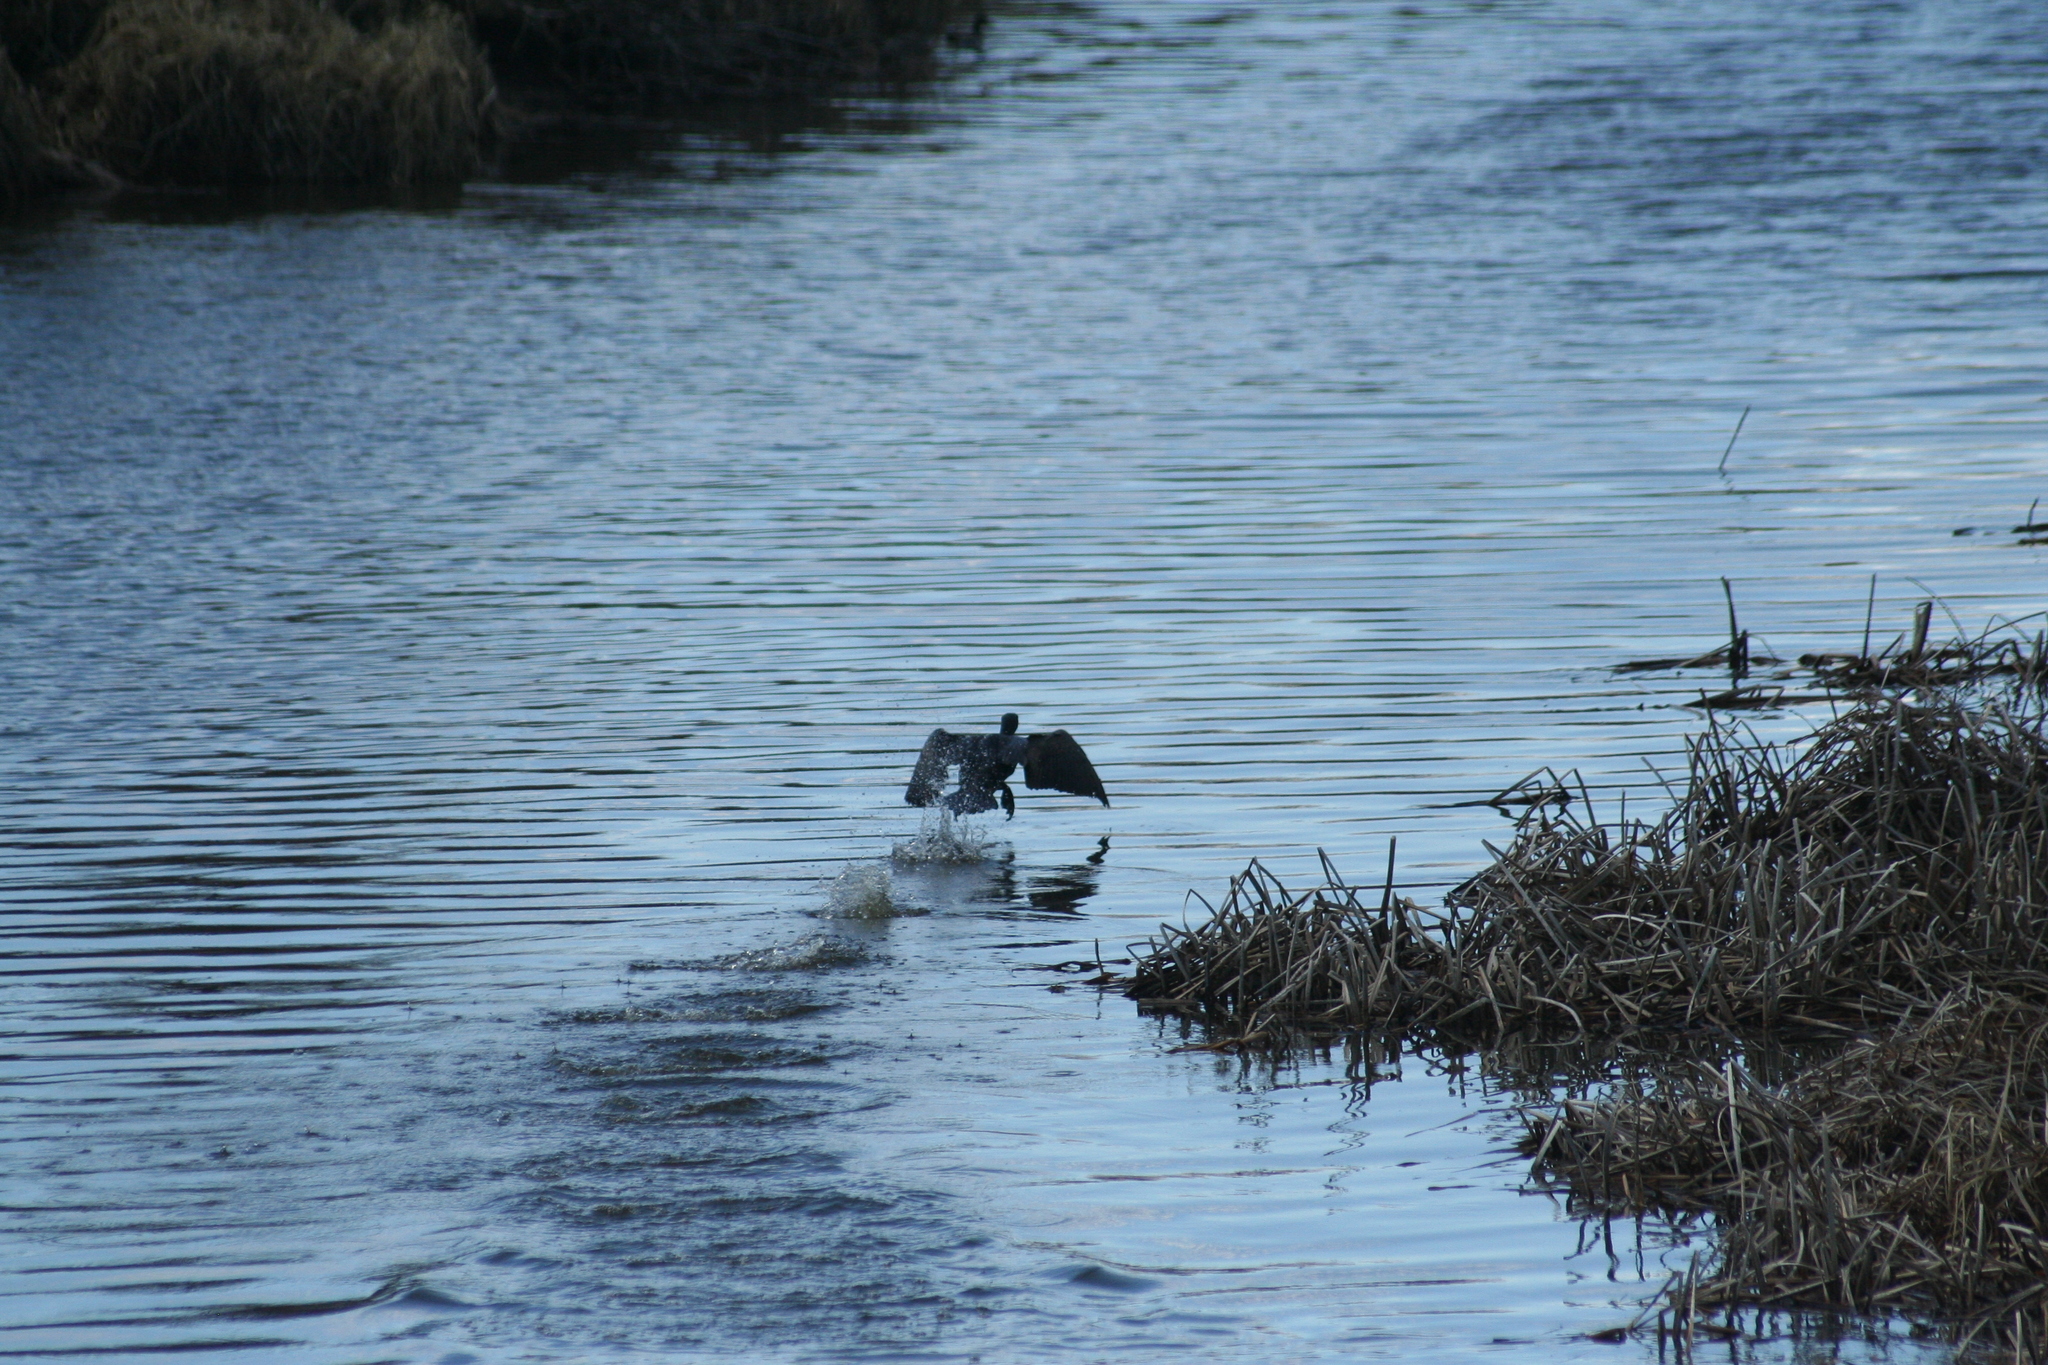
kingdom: Animalia
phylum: Chordata
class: Aves
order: Suliformes
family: Phalacrocoracidae
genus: Phalacrocorax
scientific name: Phalacrocorax auritus
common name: Double-crested cormorant
